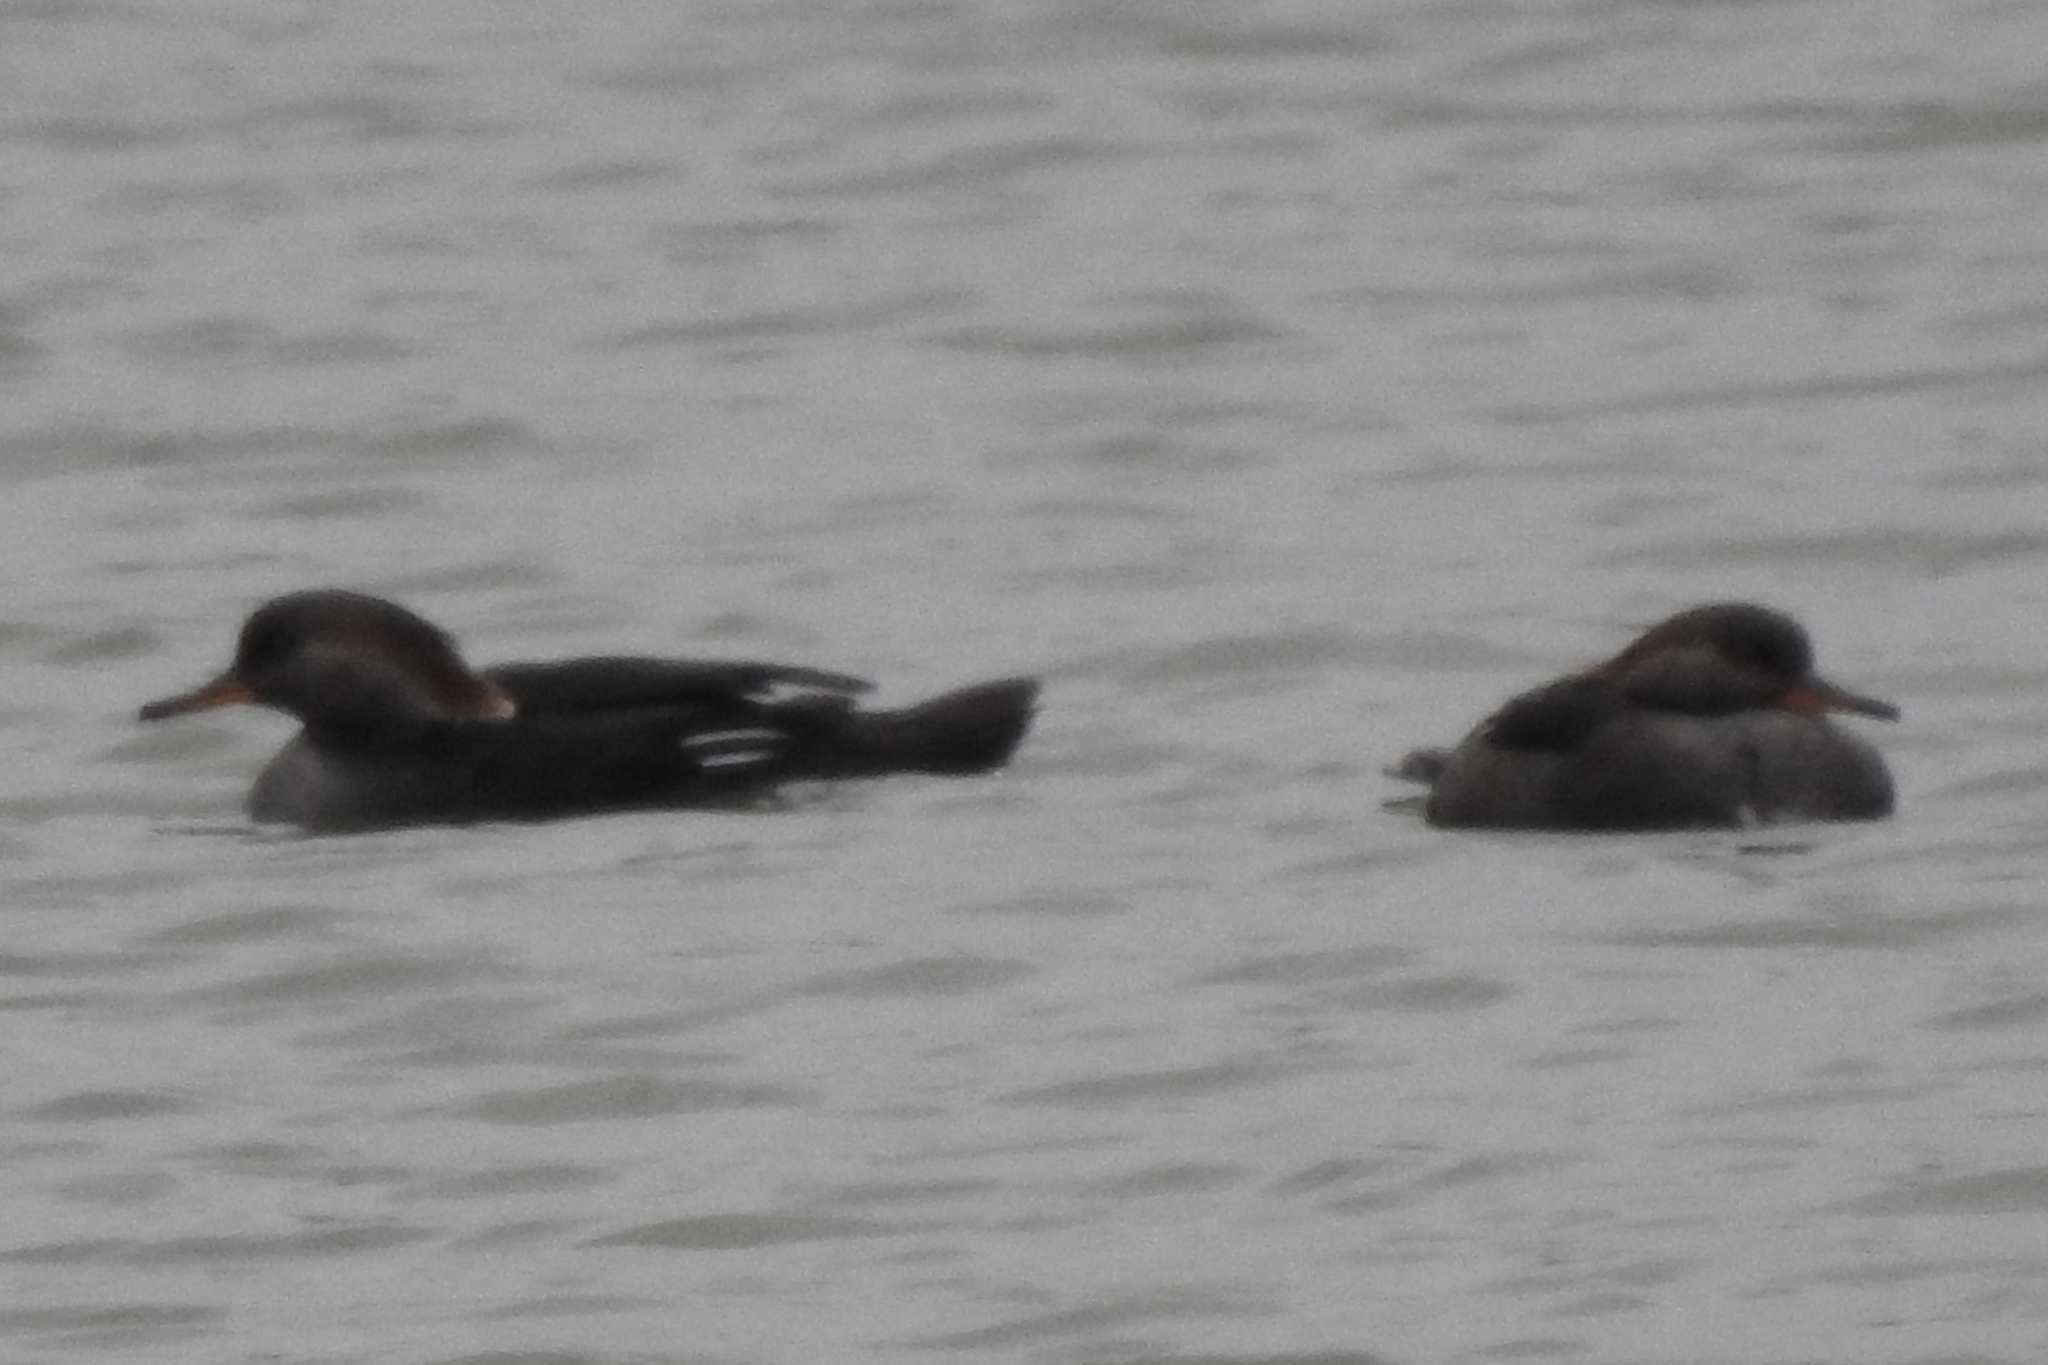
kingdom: Animalia
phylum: Chordata
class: Aves
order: Anseriformes
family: Anatidae
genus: Lophodytes
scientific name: Lophodytes cucullatus
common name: Hooded merganser
